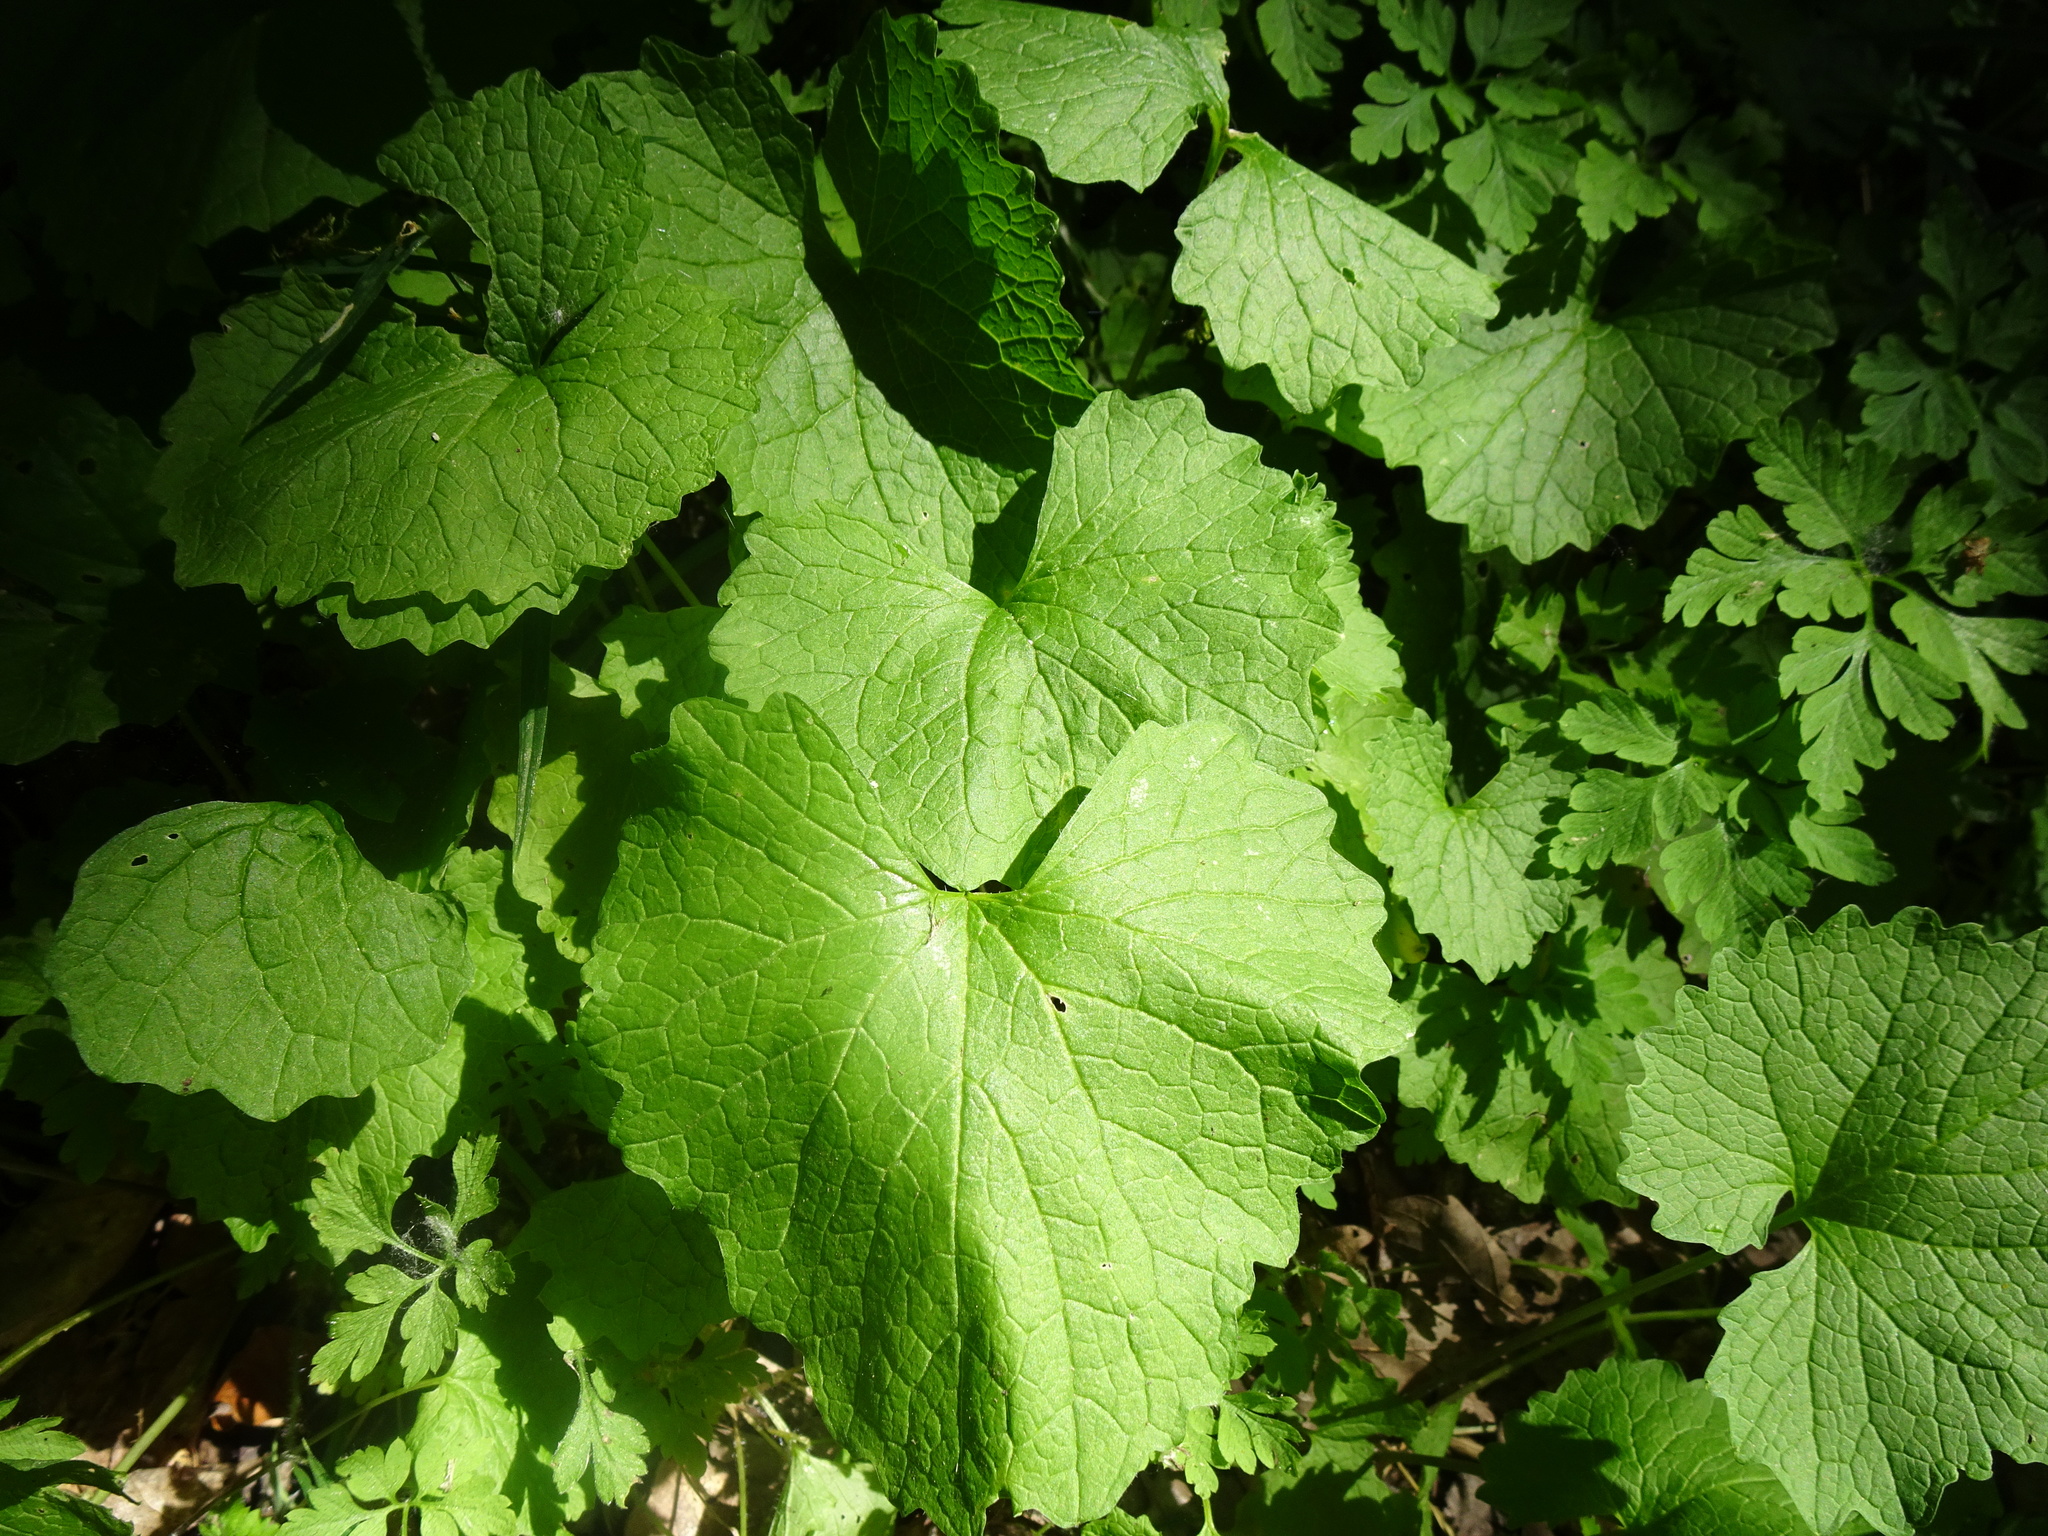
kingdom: Plantae
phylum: Tracheophyta
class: Magnoliopsida
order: Brassicales
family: Brassicaceae
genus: Alliaria
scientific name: Alliaria petiolata
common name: Garlic mustard
